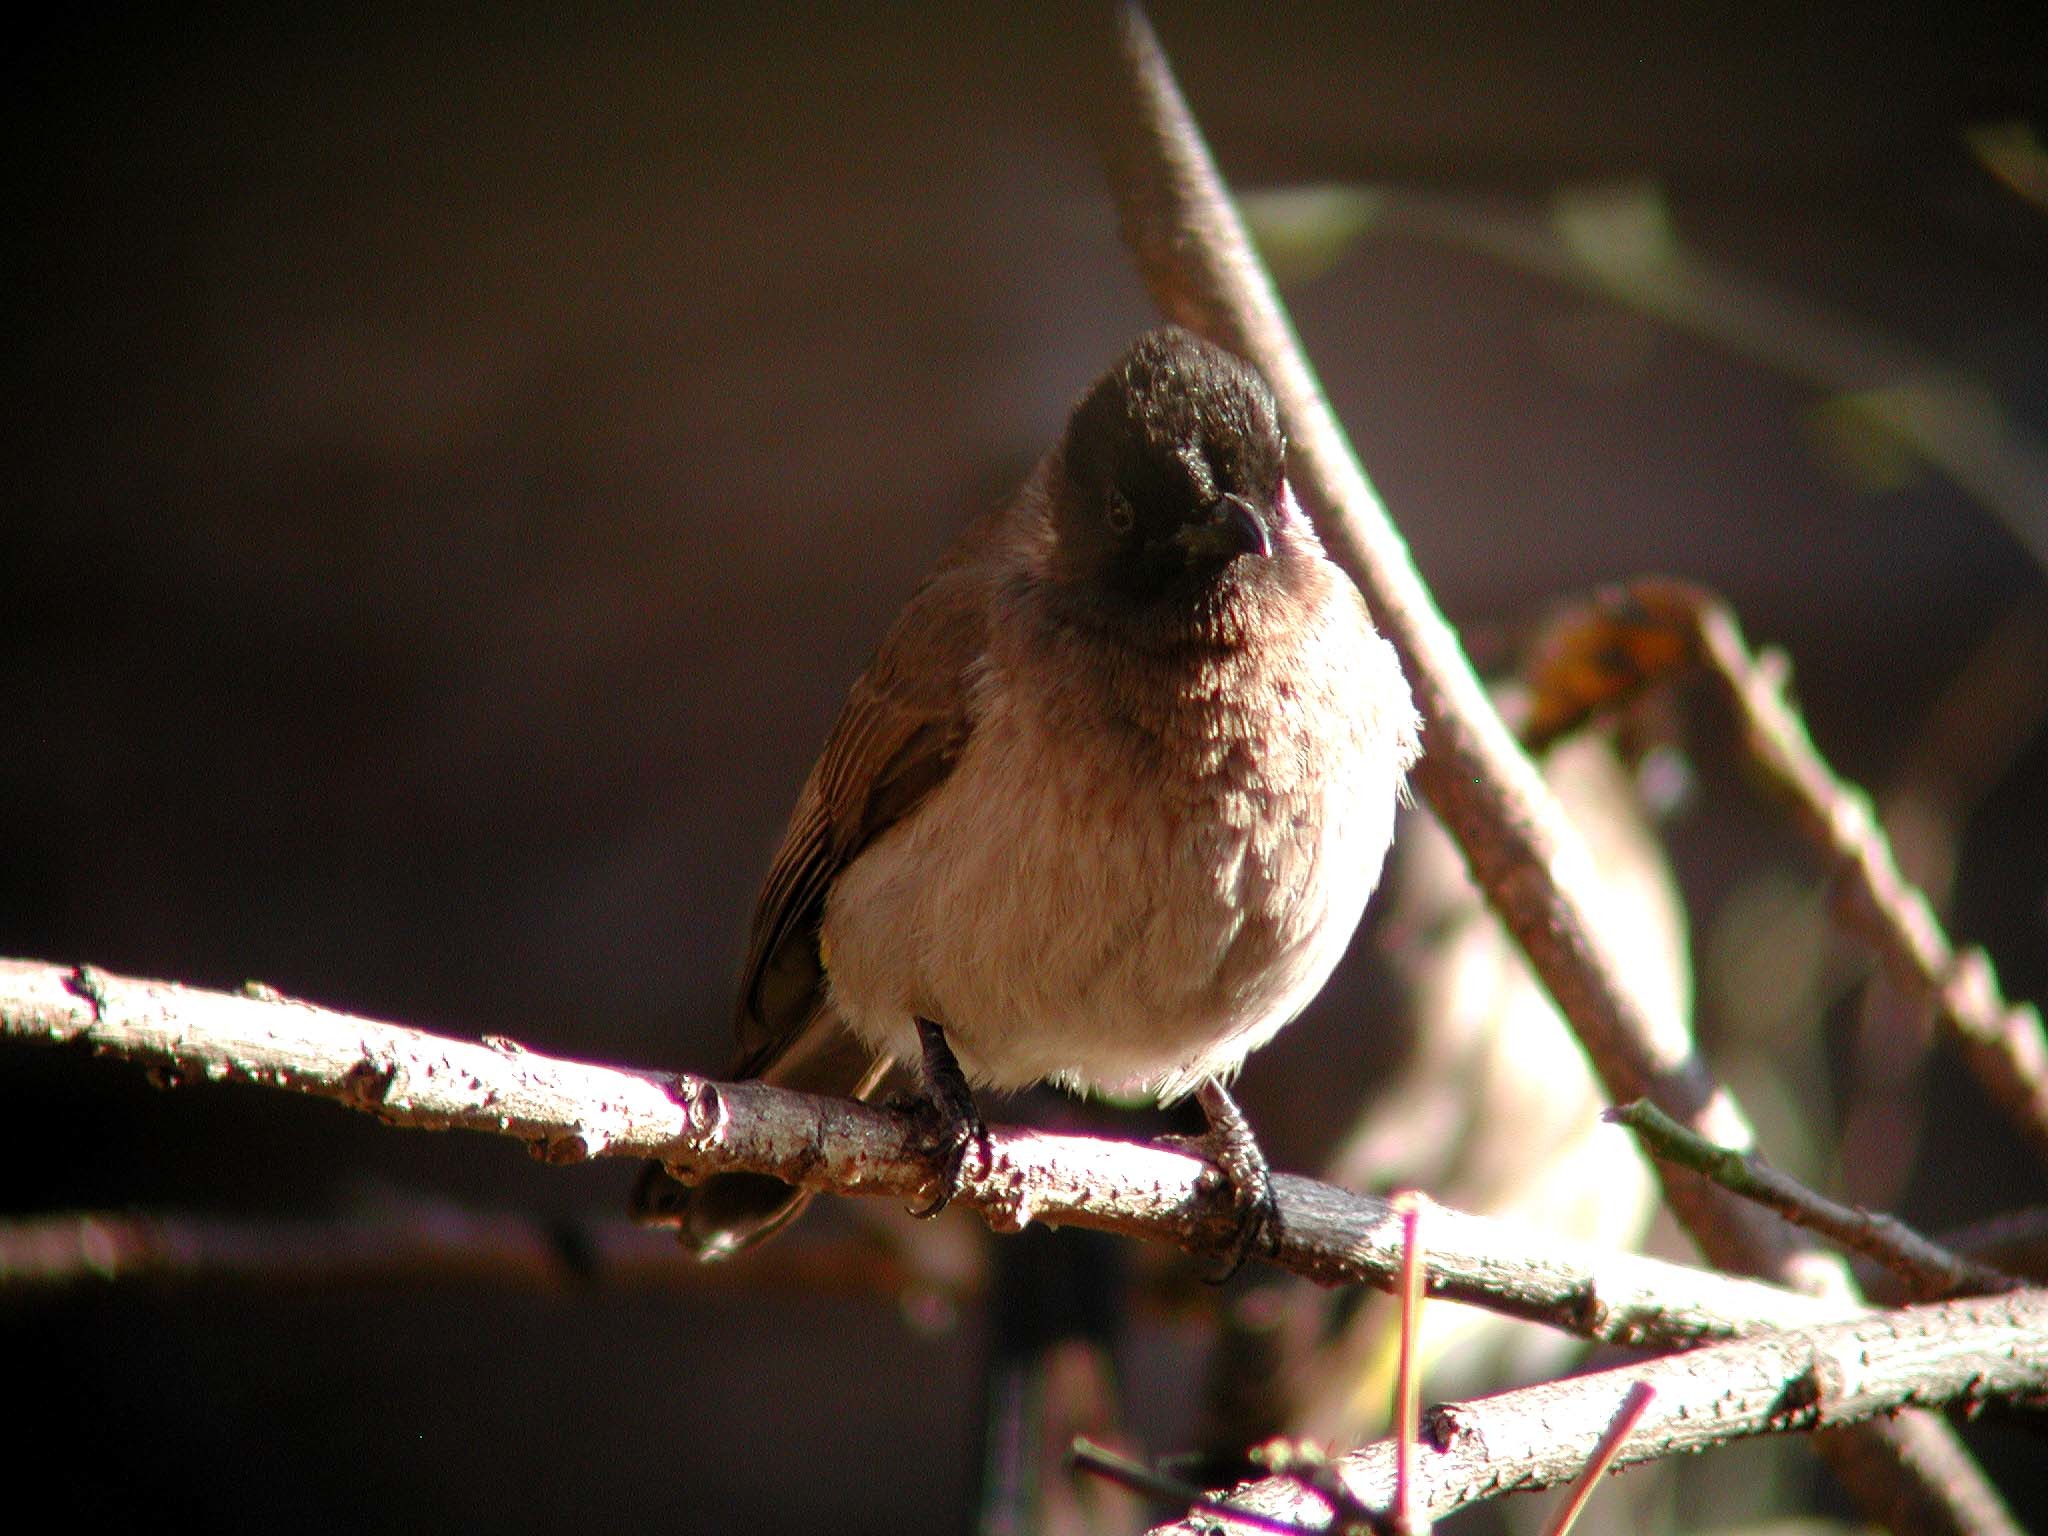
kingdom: Animalia
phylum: Chordata
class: Aves
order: Passeriformes
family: Pycnonotidae
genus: Pycnonotus
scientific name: Pycnonotus barbatus
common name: Common bulbul
